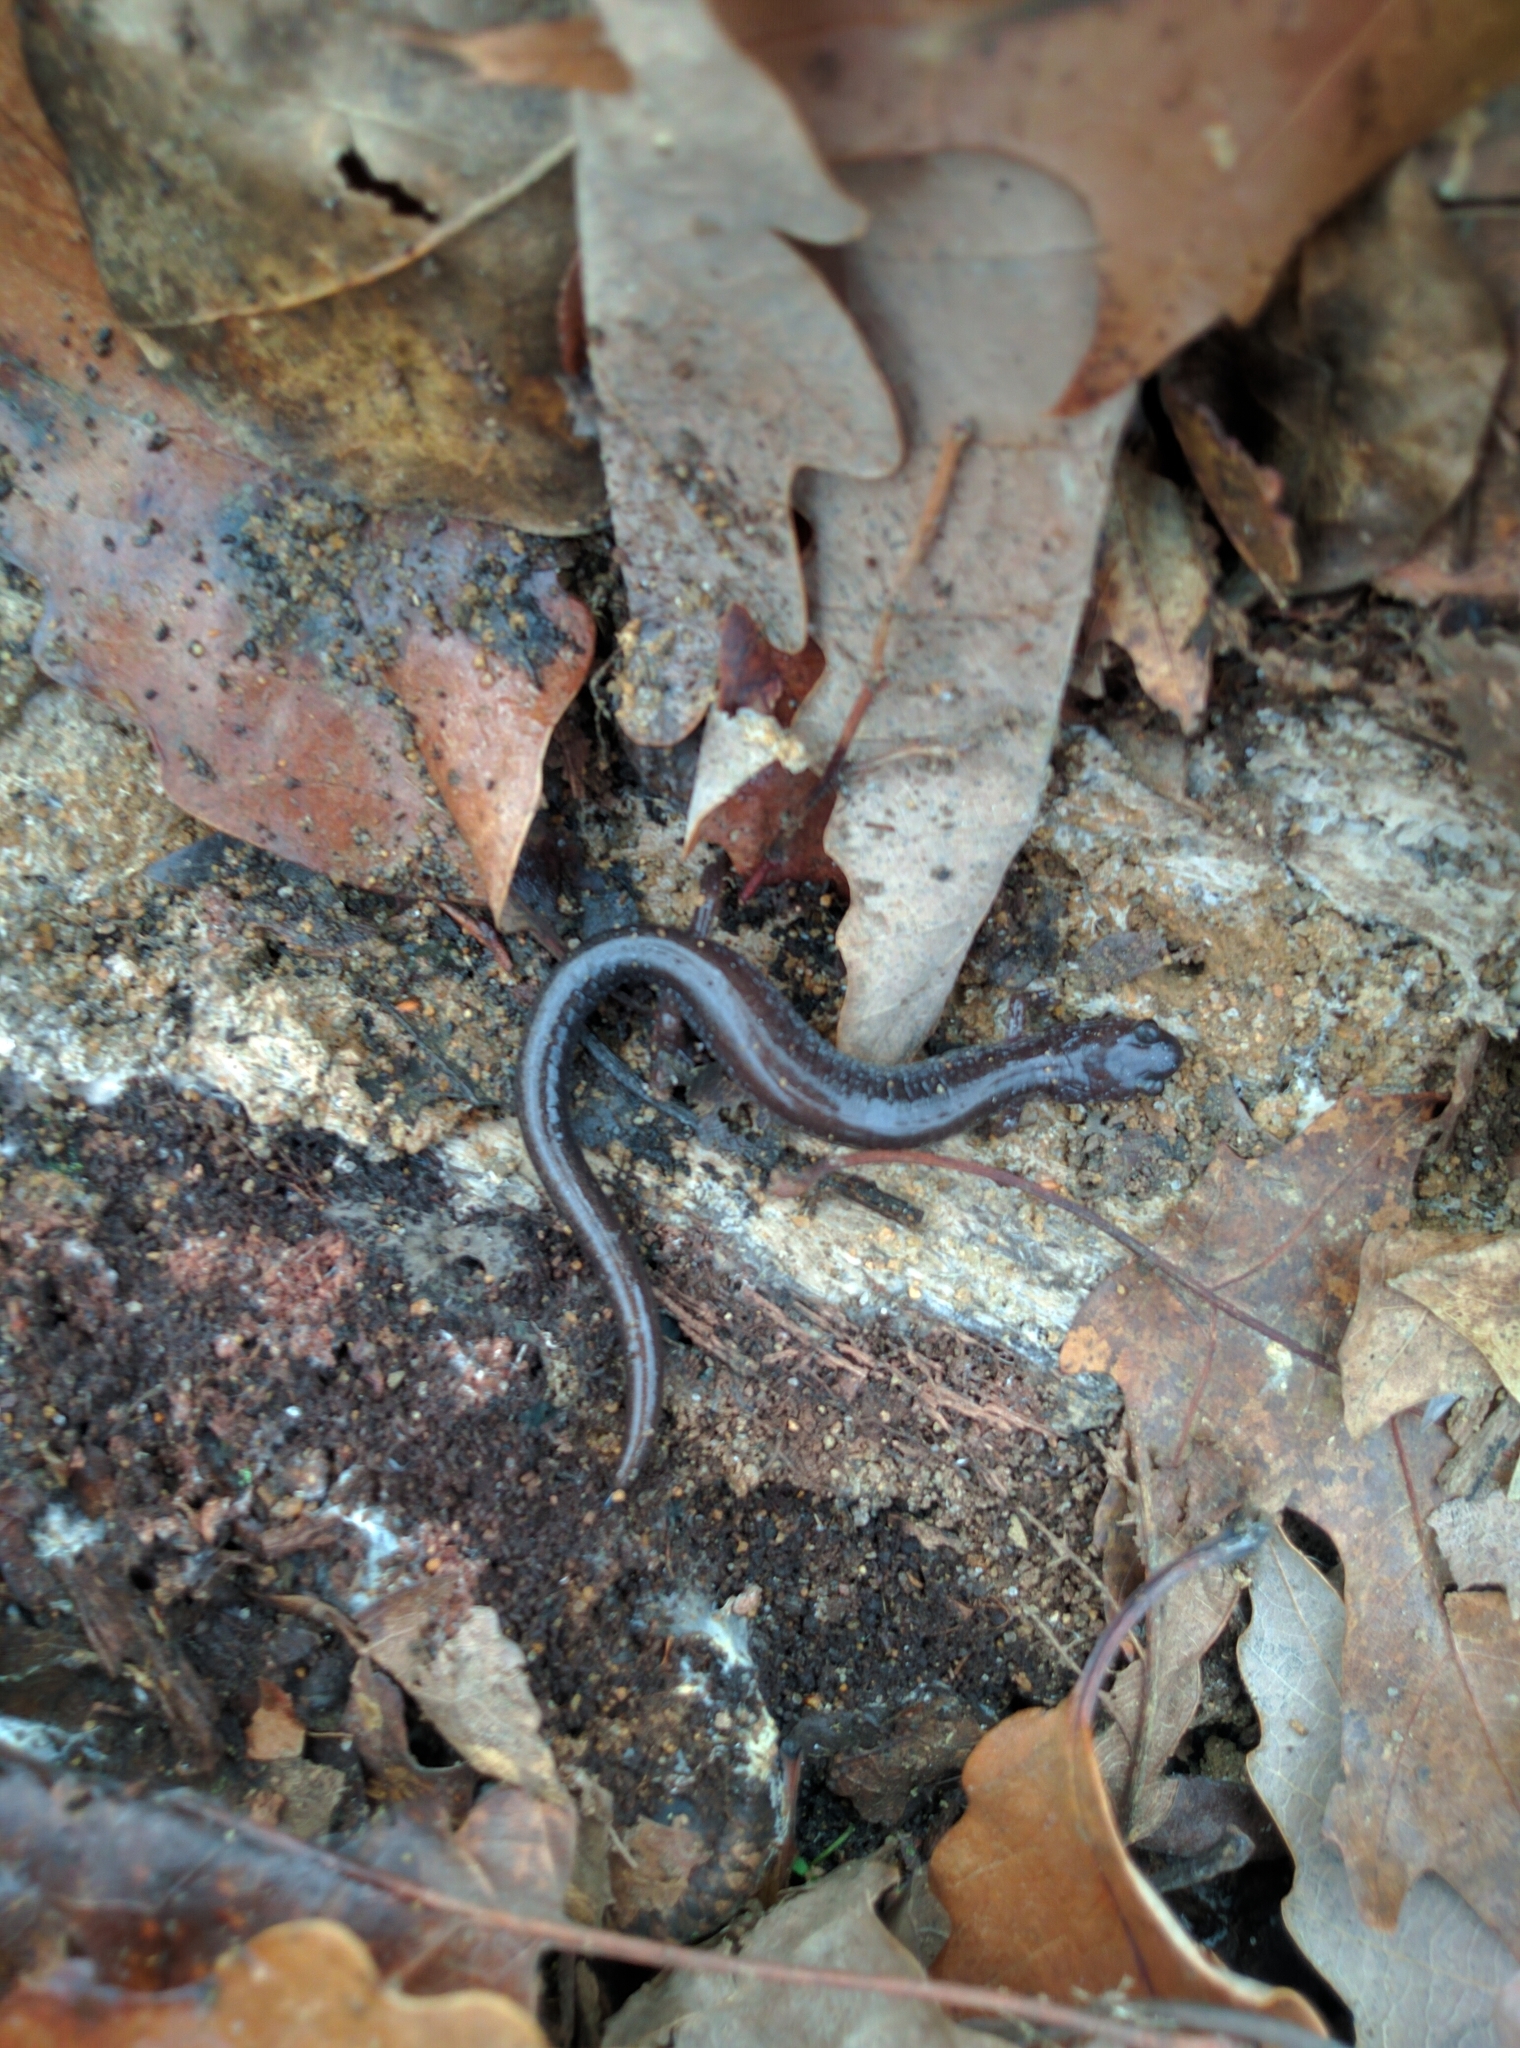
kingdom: Animalia
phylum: Chordata
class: Amphibia
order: Caudata
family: Plethodontidae
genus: Plethodon
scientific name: Plethodon cinereus
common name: Redback salamander
